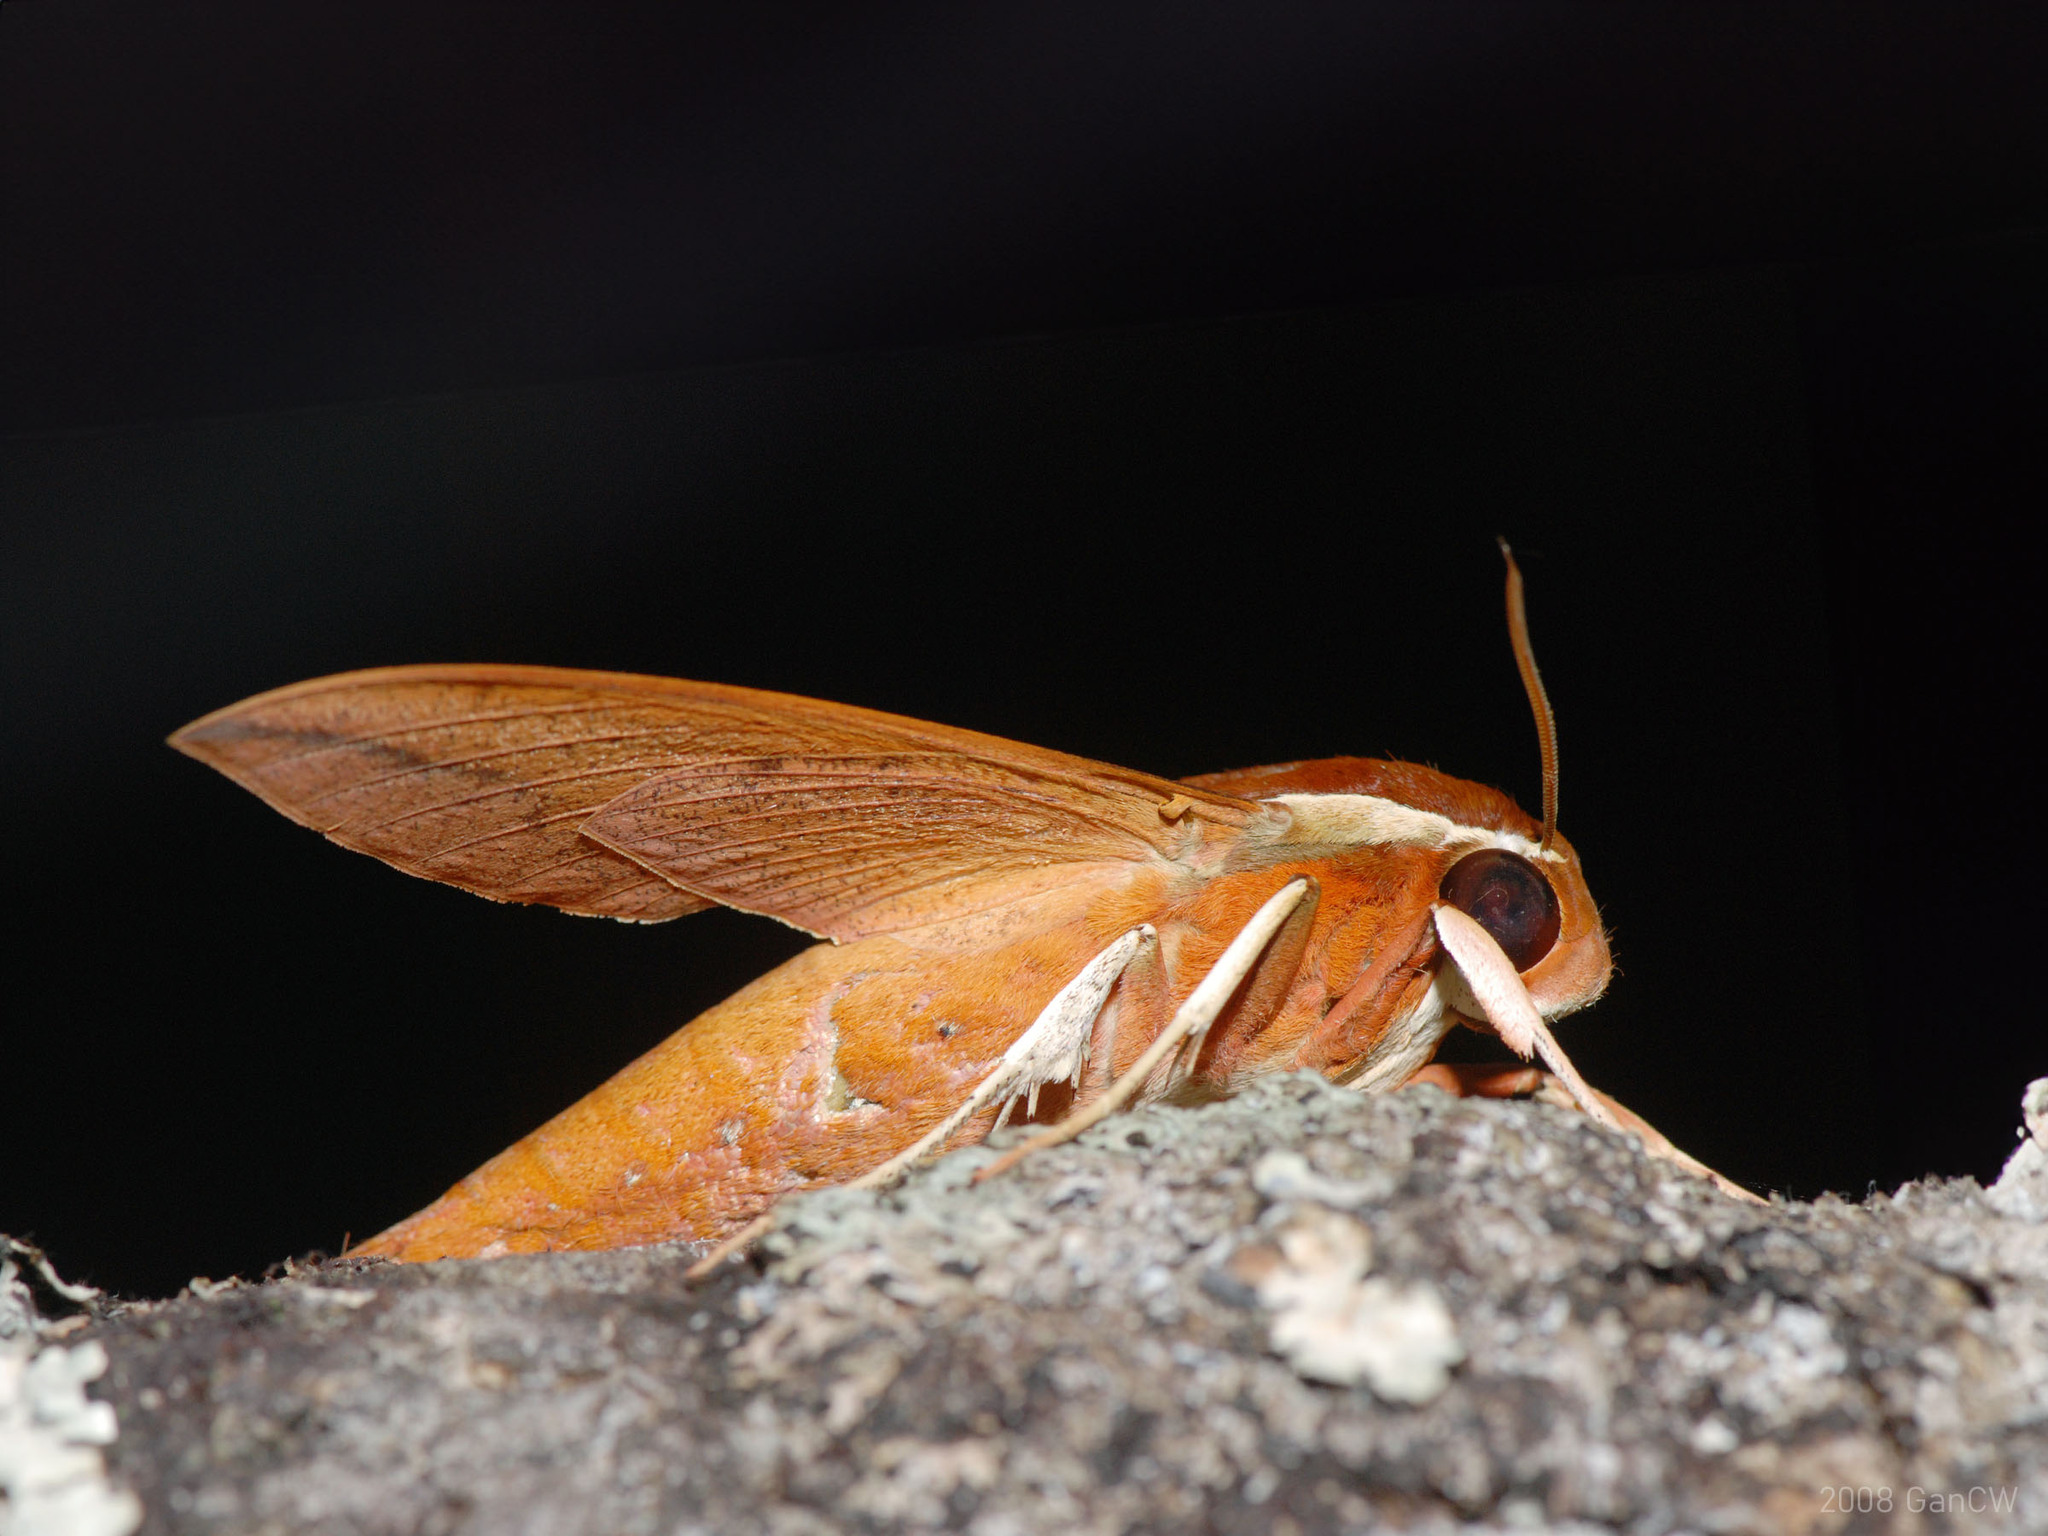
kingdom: Animalia
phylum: Arthropoda
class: Insecta
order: Lepidoptera
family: Sphingidae
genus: Gnathothlibus
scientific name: Gnathothlibus erotus
